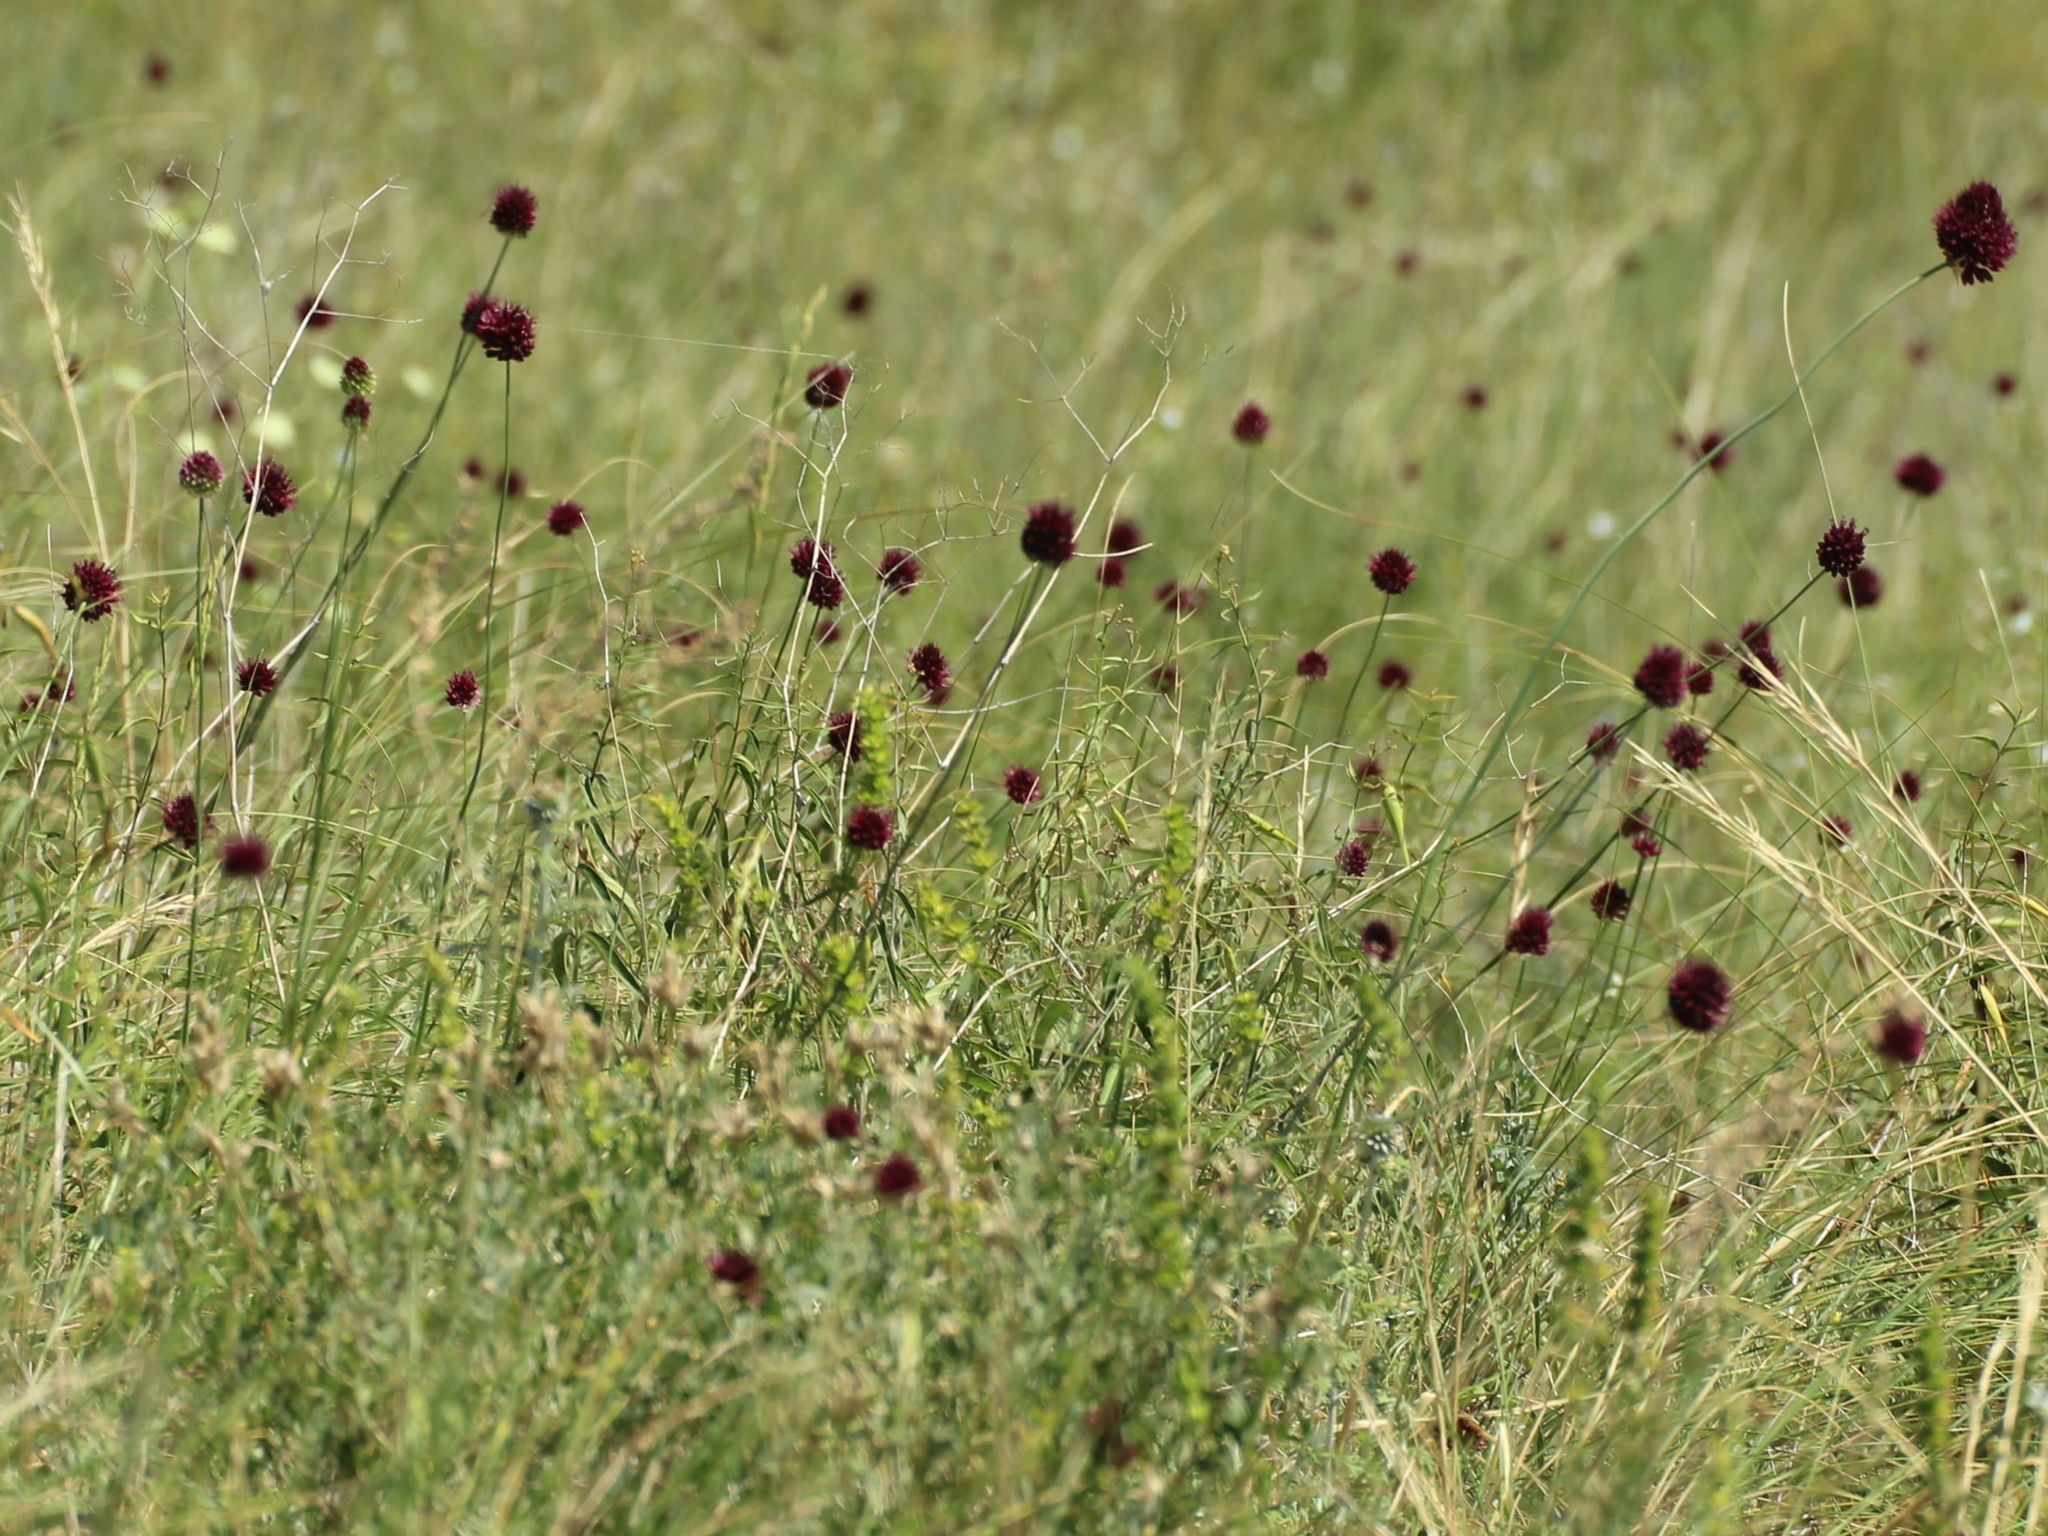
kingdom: Plantae
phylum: Tracheophyta
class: Liliopsida
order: Asparagales
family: Amaryllidaceae
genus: Allium
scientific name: Allium sphaerocephalon
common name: Round-headed leek
